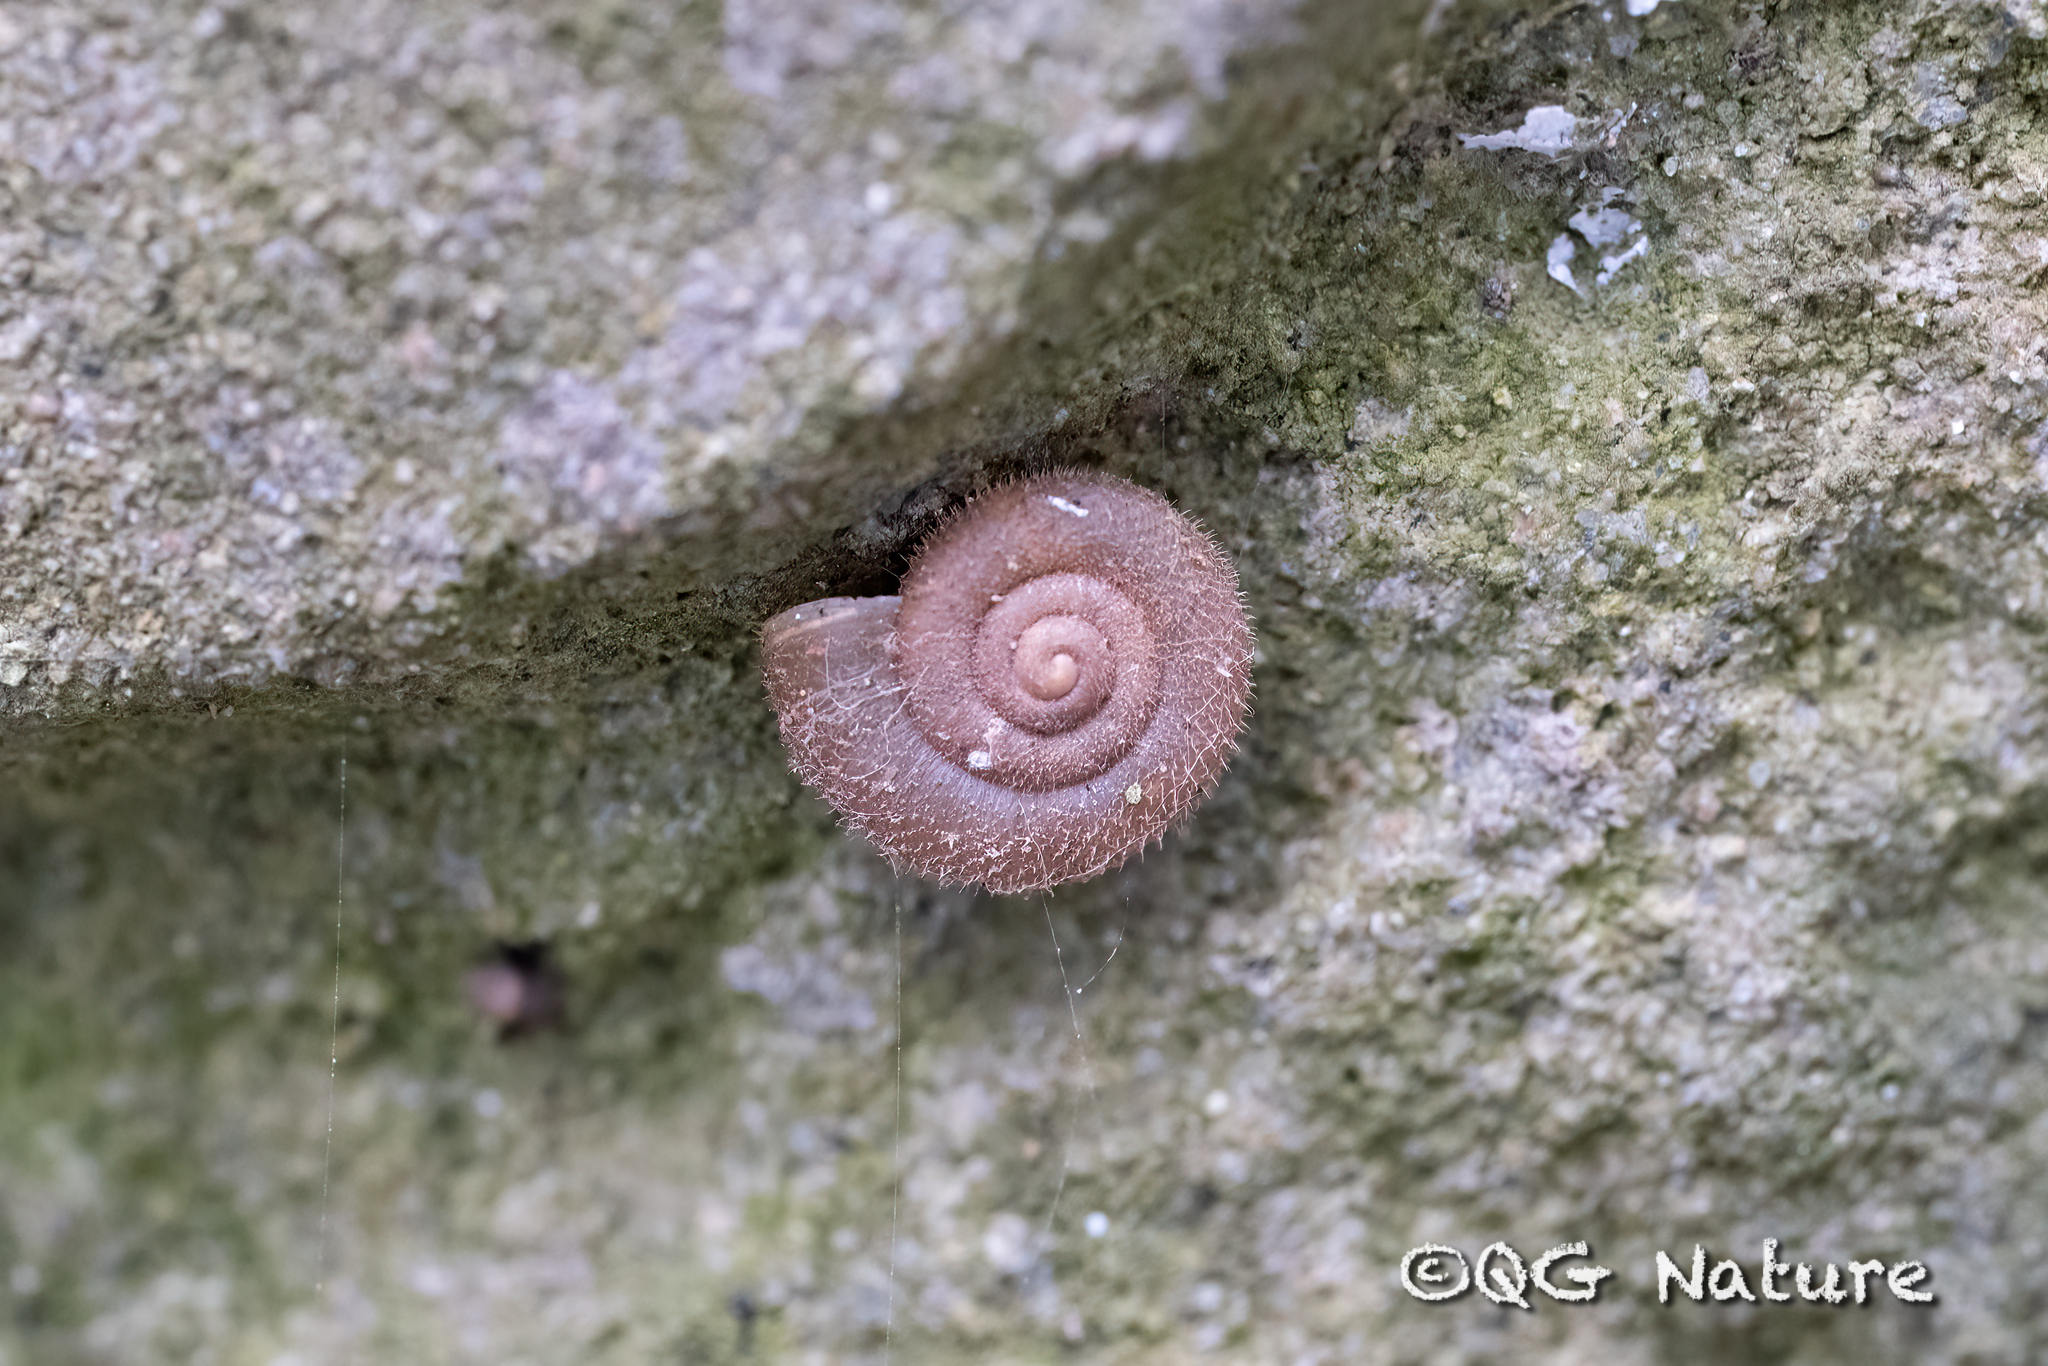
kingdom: Animalia
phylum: Mollusca
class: Gastropoda
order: Stylommatophora
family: Camaenidae
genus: Trichobradybaena
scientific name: Trichobradybaena submissa
